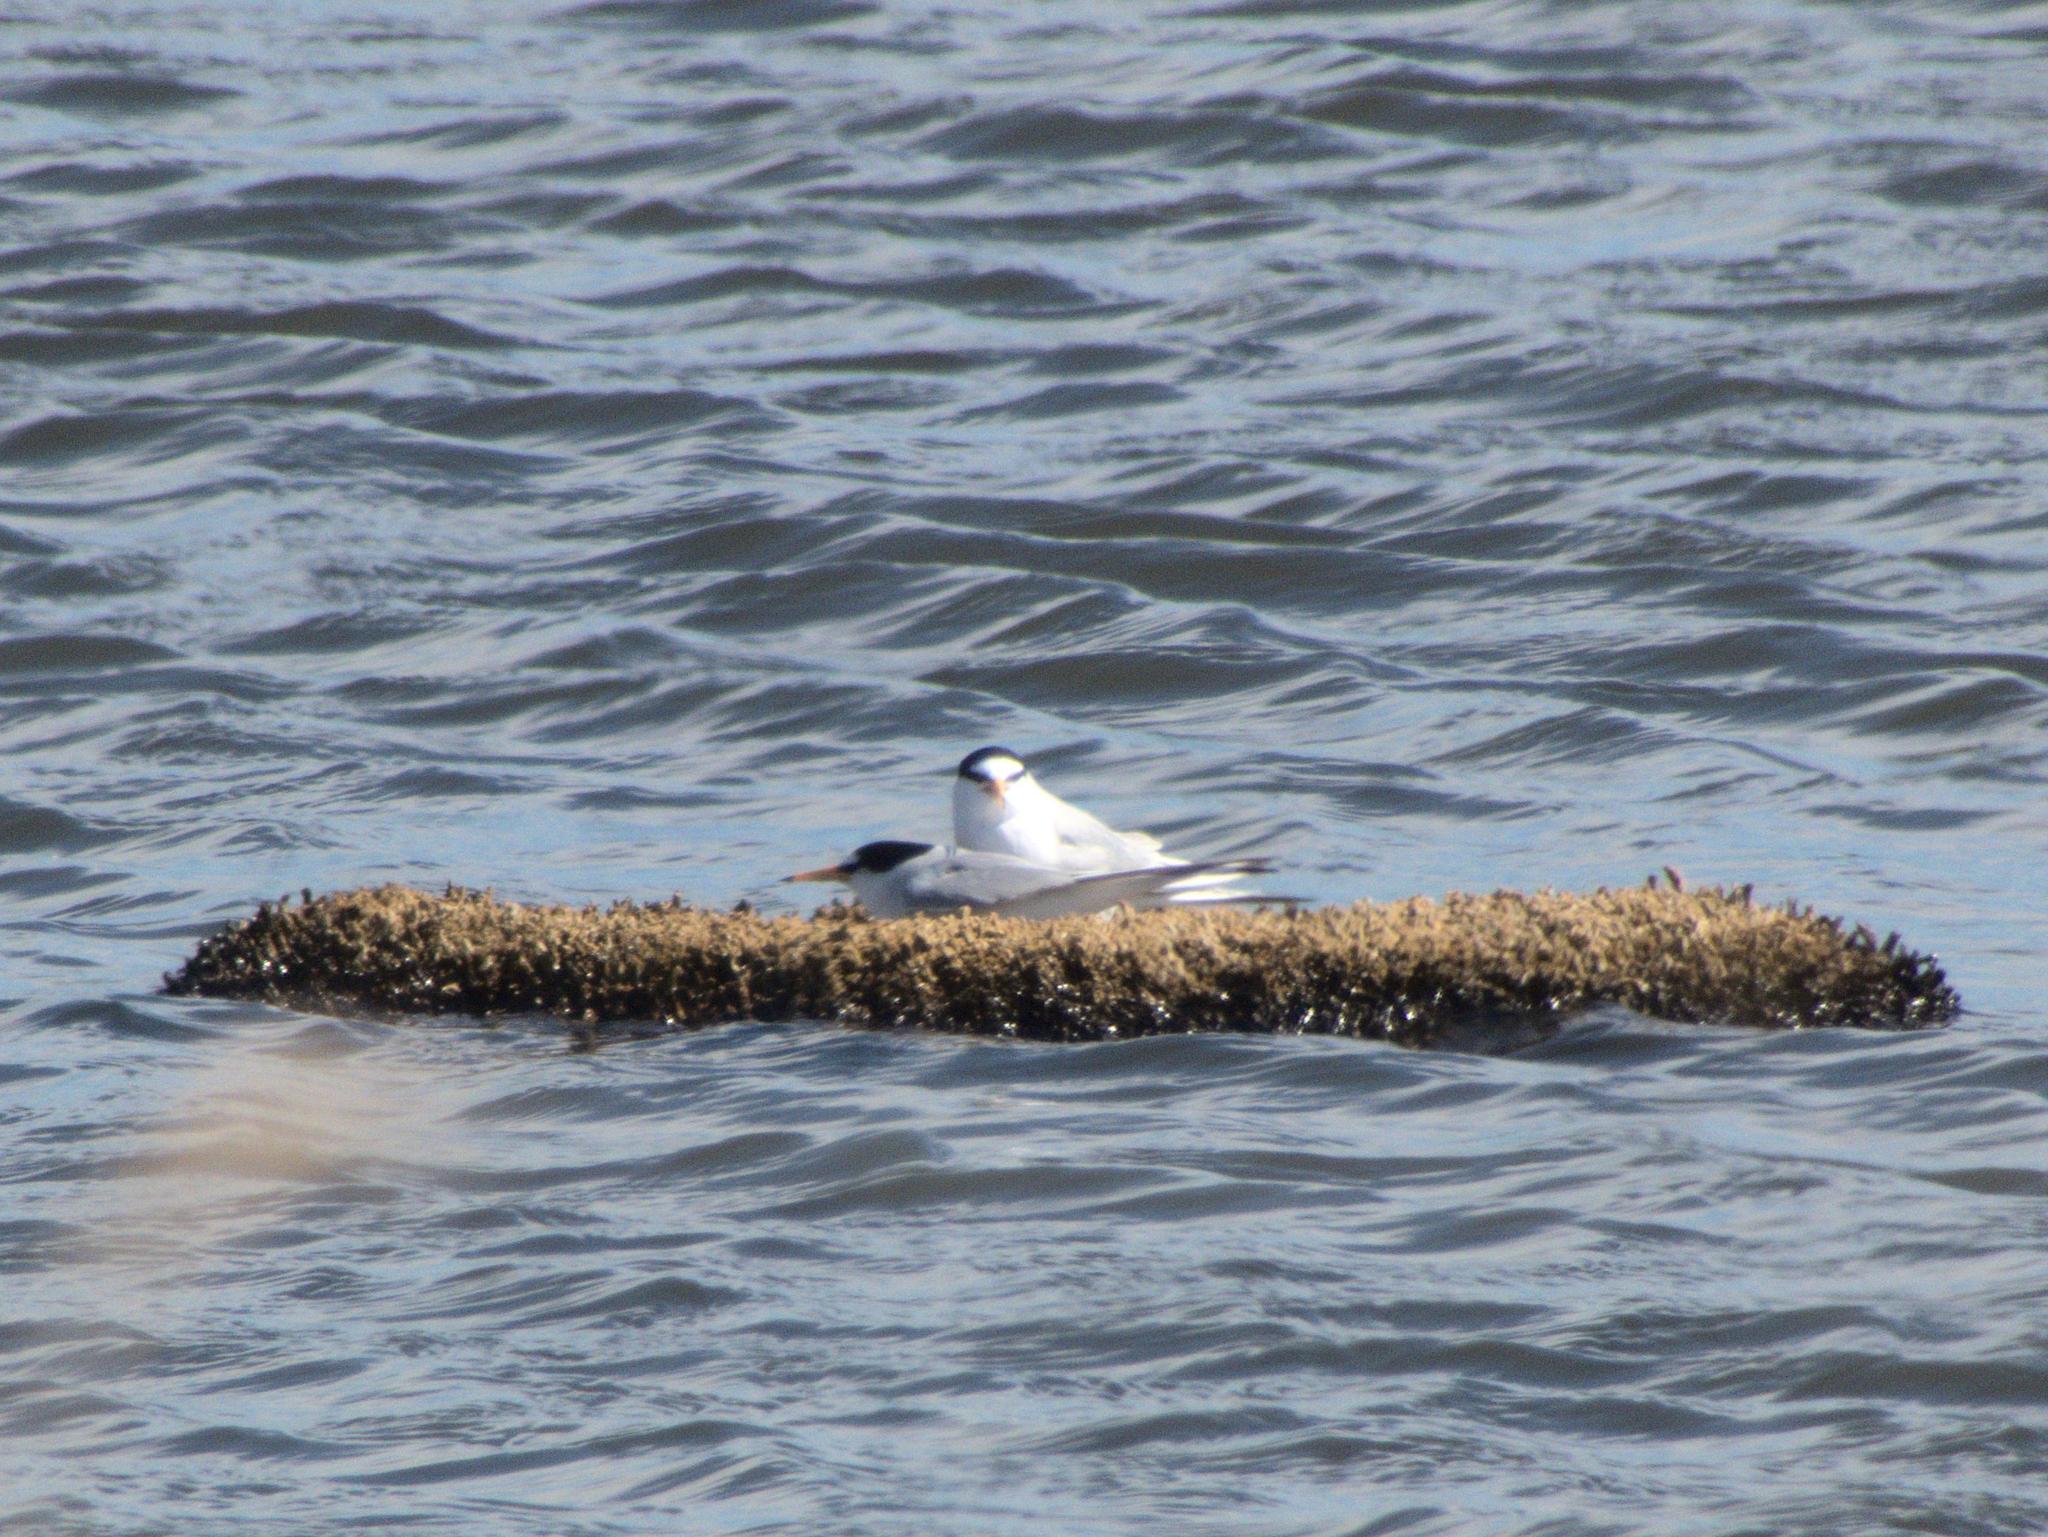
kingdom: Animalia
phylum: Chordata
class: Aves
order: Charadriiformes
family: Laridae
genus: Sternula
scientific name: Sternula albifrons
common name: Little tern
